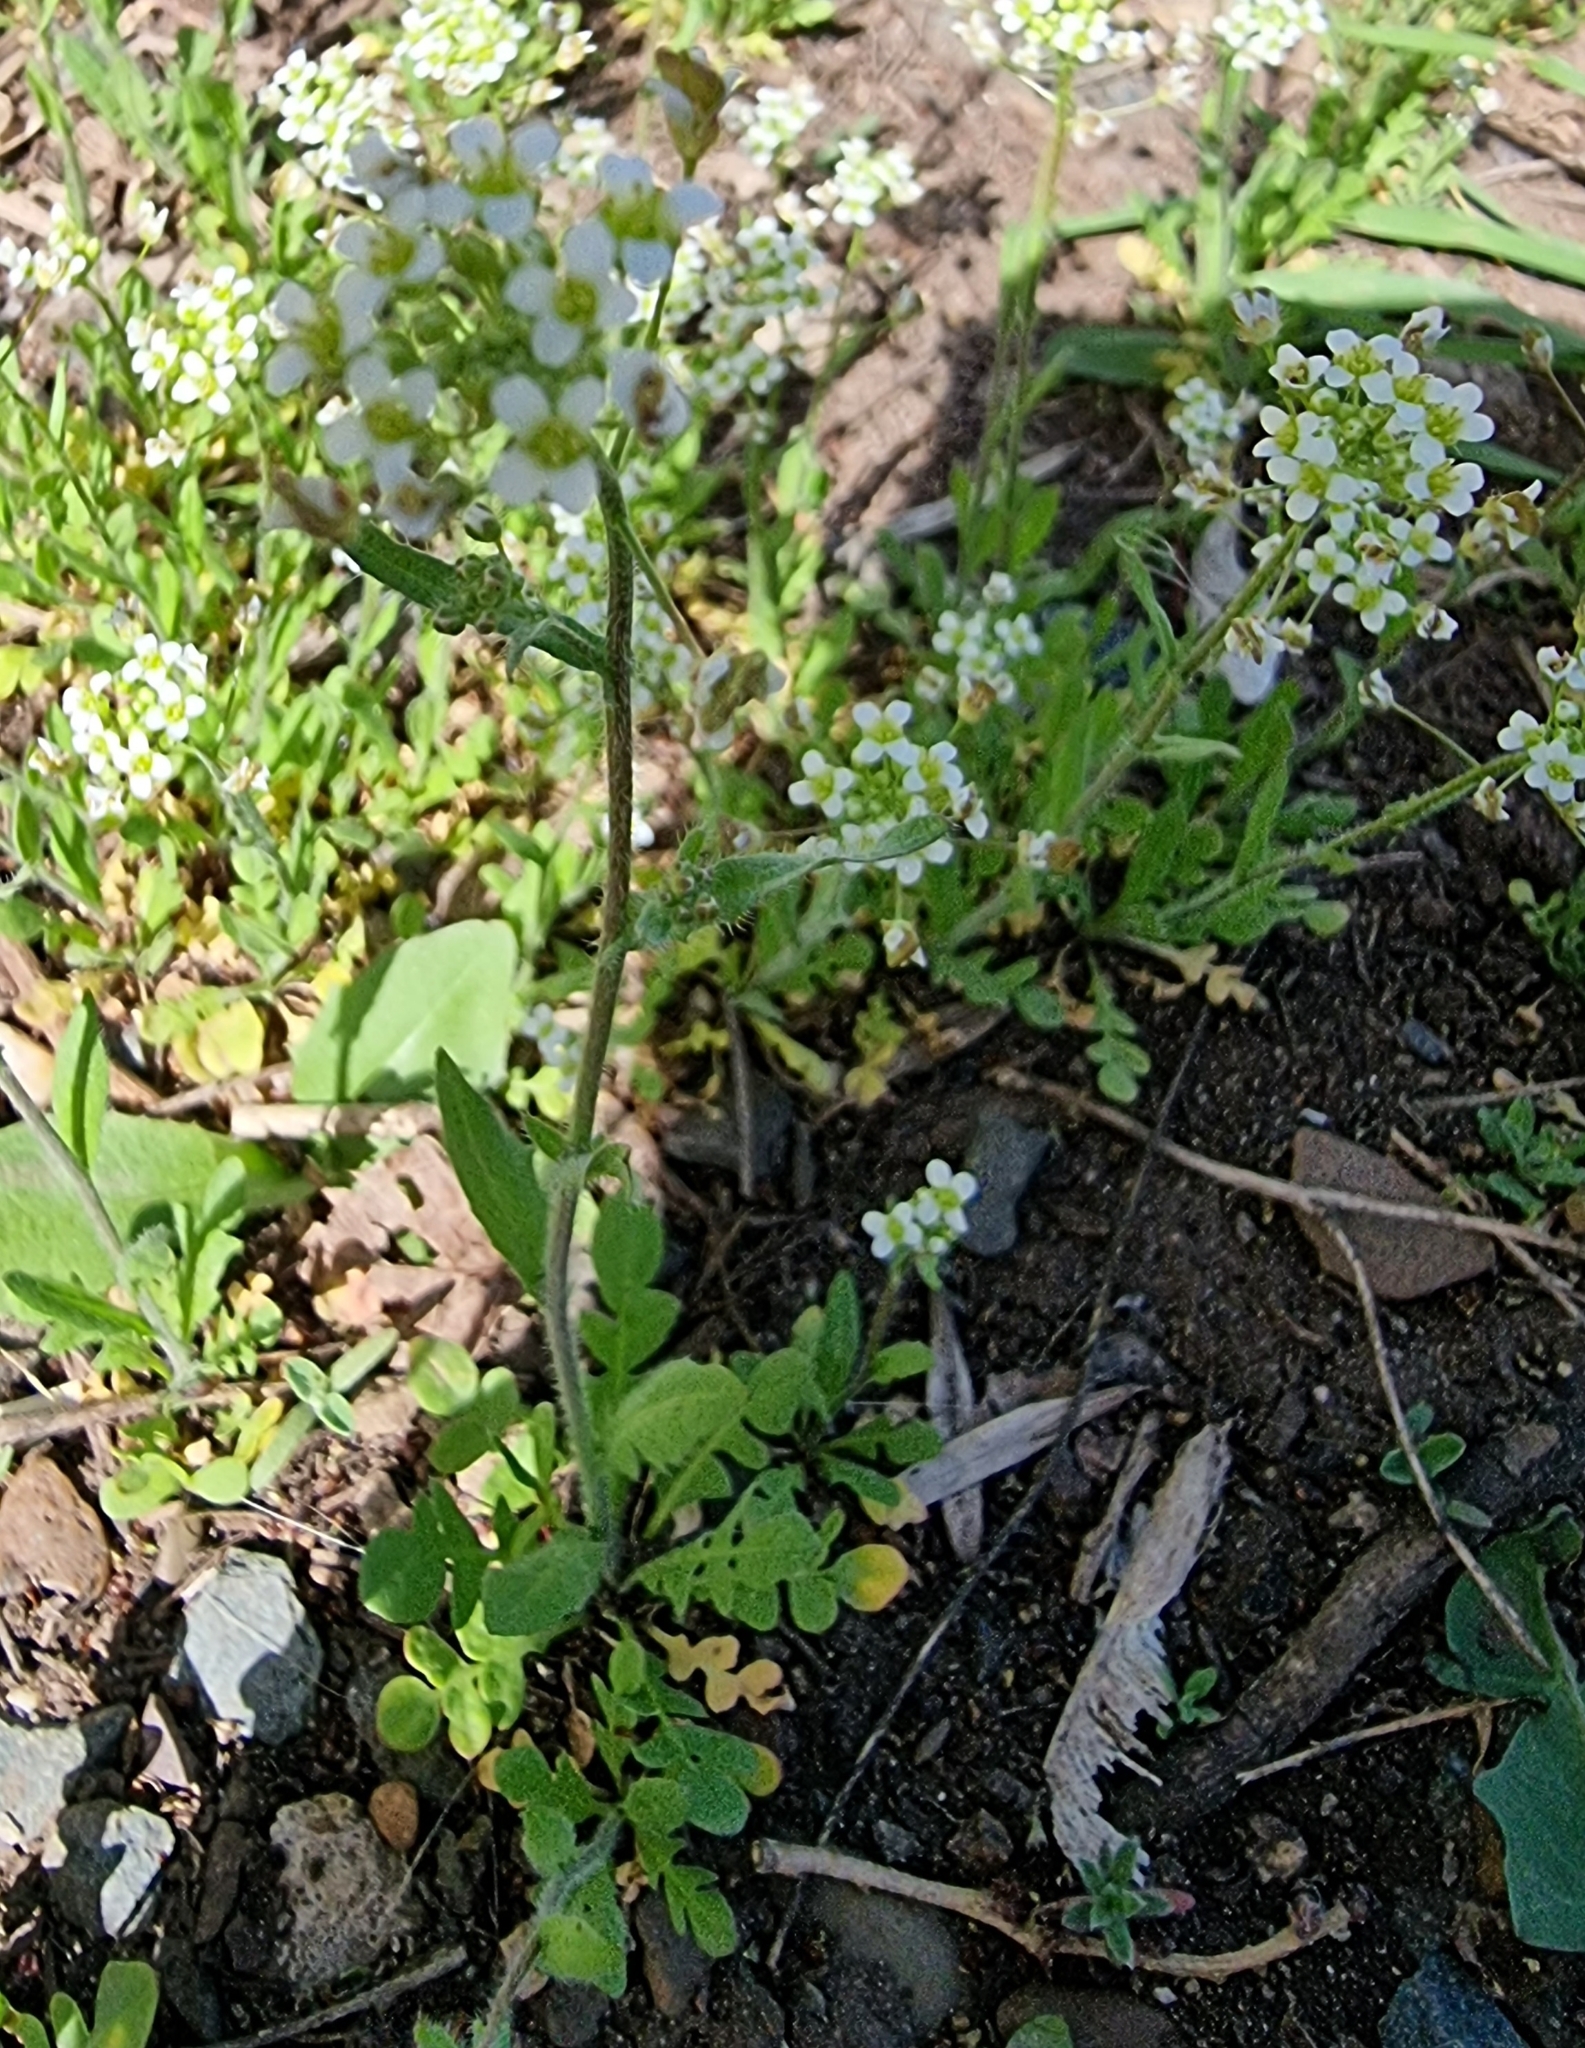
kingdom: Plantae
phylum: Tracheophyta
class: Magnoliopsida
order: Brassicales
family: Brassicaceae
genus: Capsella
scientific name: Capsella bursa-pastoris
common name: Shepherd's purse
